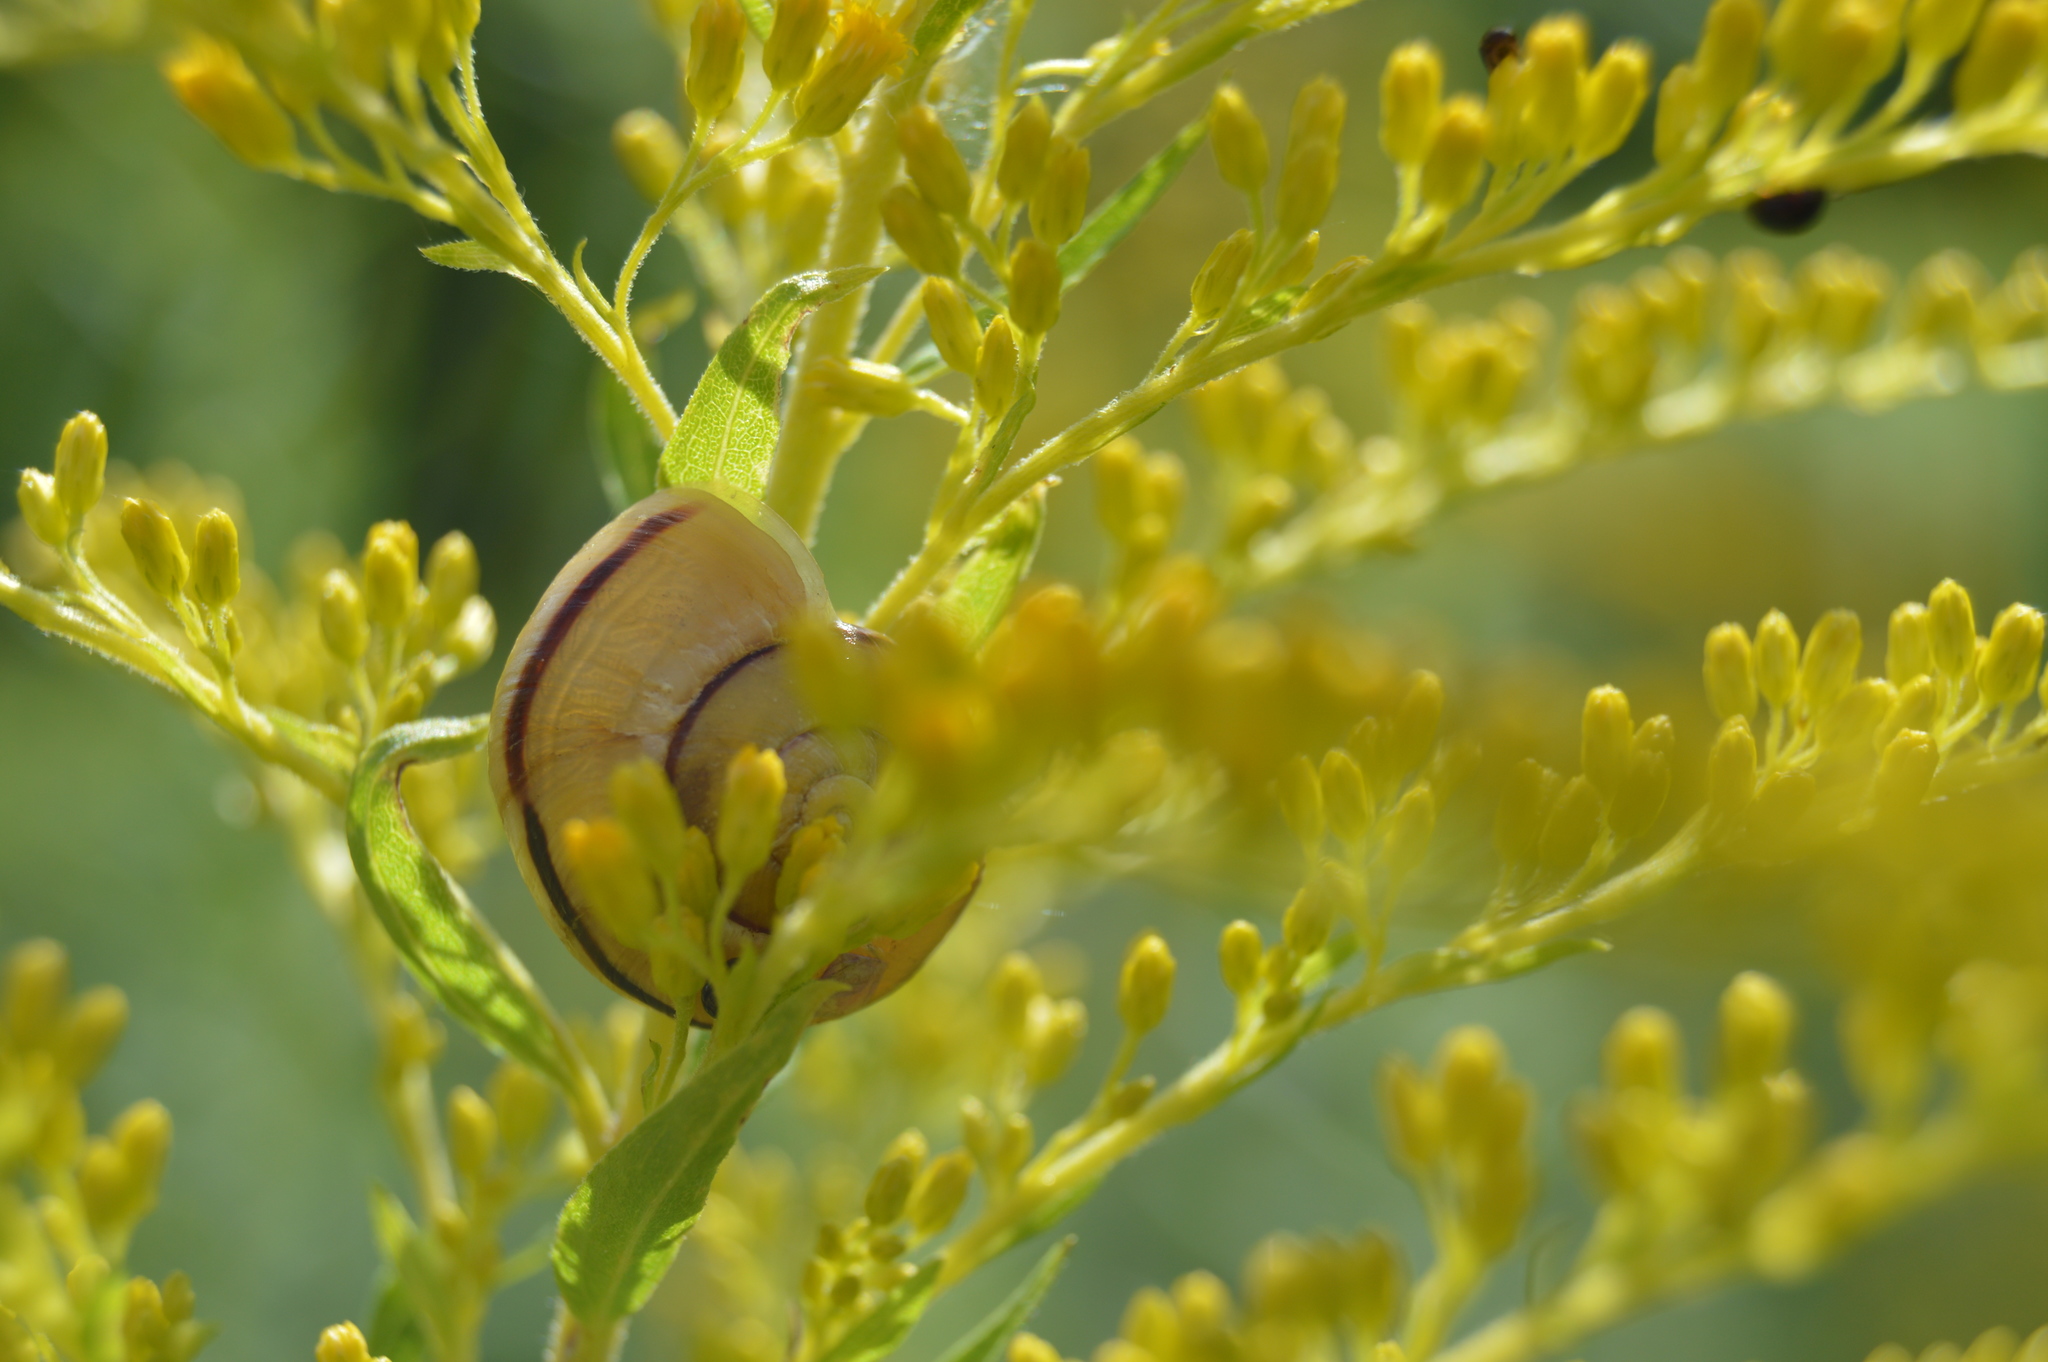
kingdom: Animalia
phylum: Mollusca
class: Gastropoda
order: Stylommatophora
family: Helicidae
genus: Cepaea
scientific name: Cepaea
